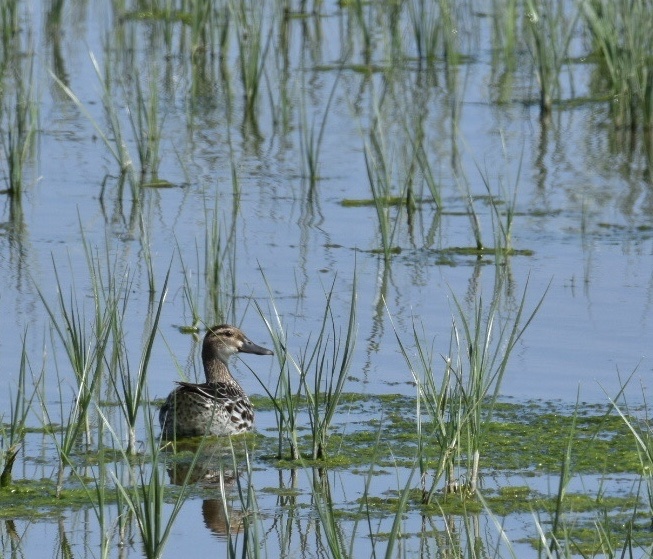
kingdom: Animalia
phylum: Chordata
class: Aves
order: Anseriformes
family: Anatidae
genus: Spatula
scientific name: Spatula querquedula
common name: Garganey
